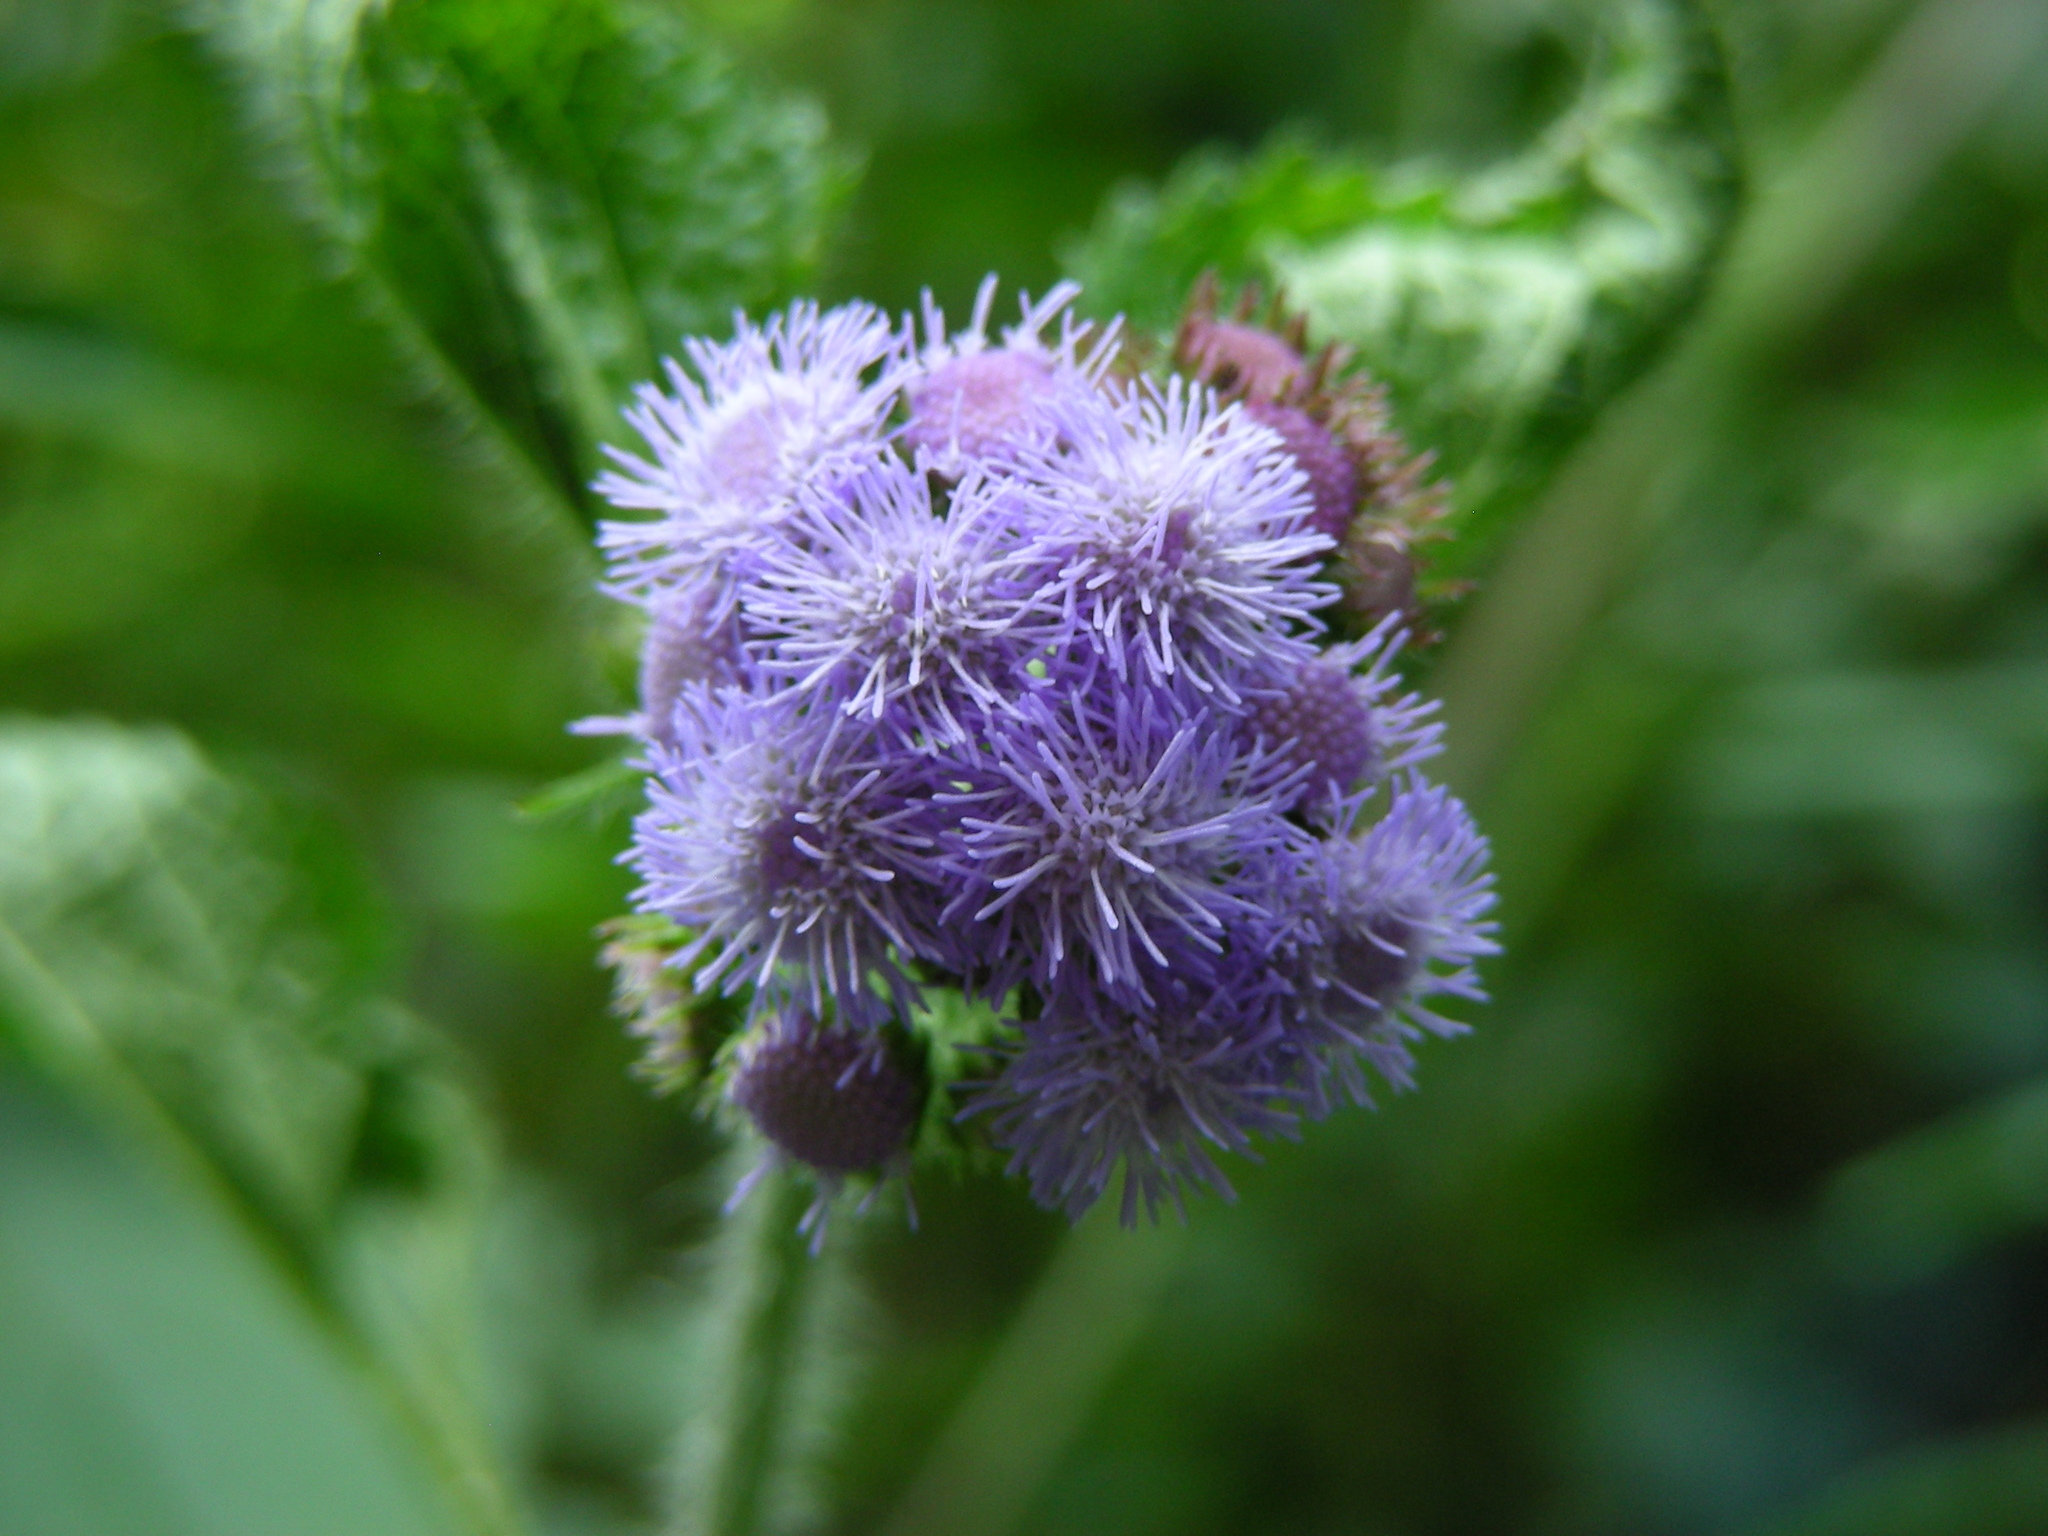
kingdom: Plantae
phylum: Tracheophyta
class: Magnoliopsida
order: Asterales
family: Asteraceae
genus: Ageratum
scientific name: Ageratum houstonianum
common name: Bluemink
